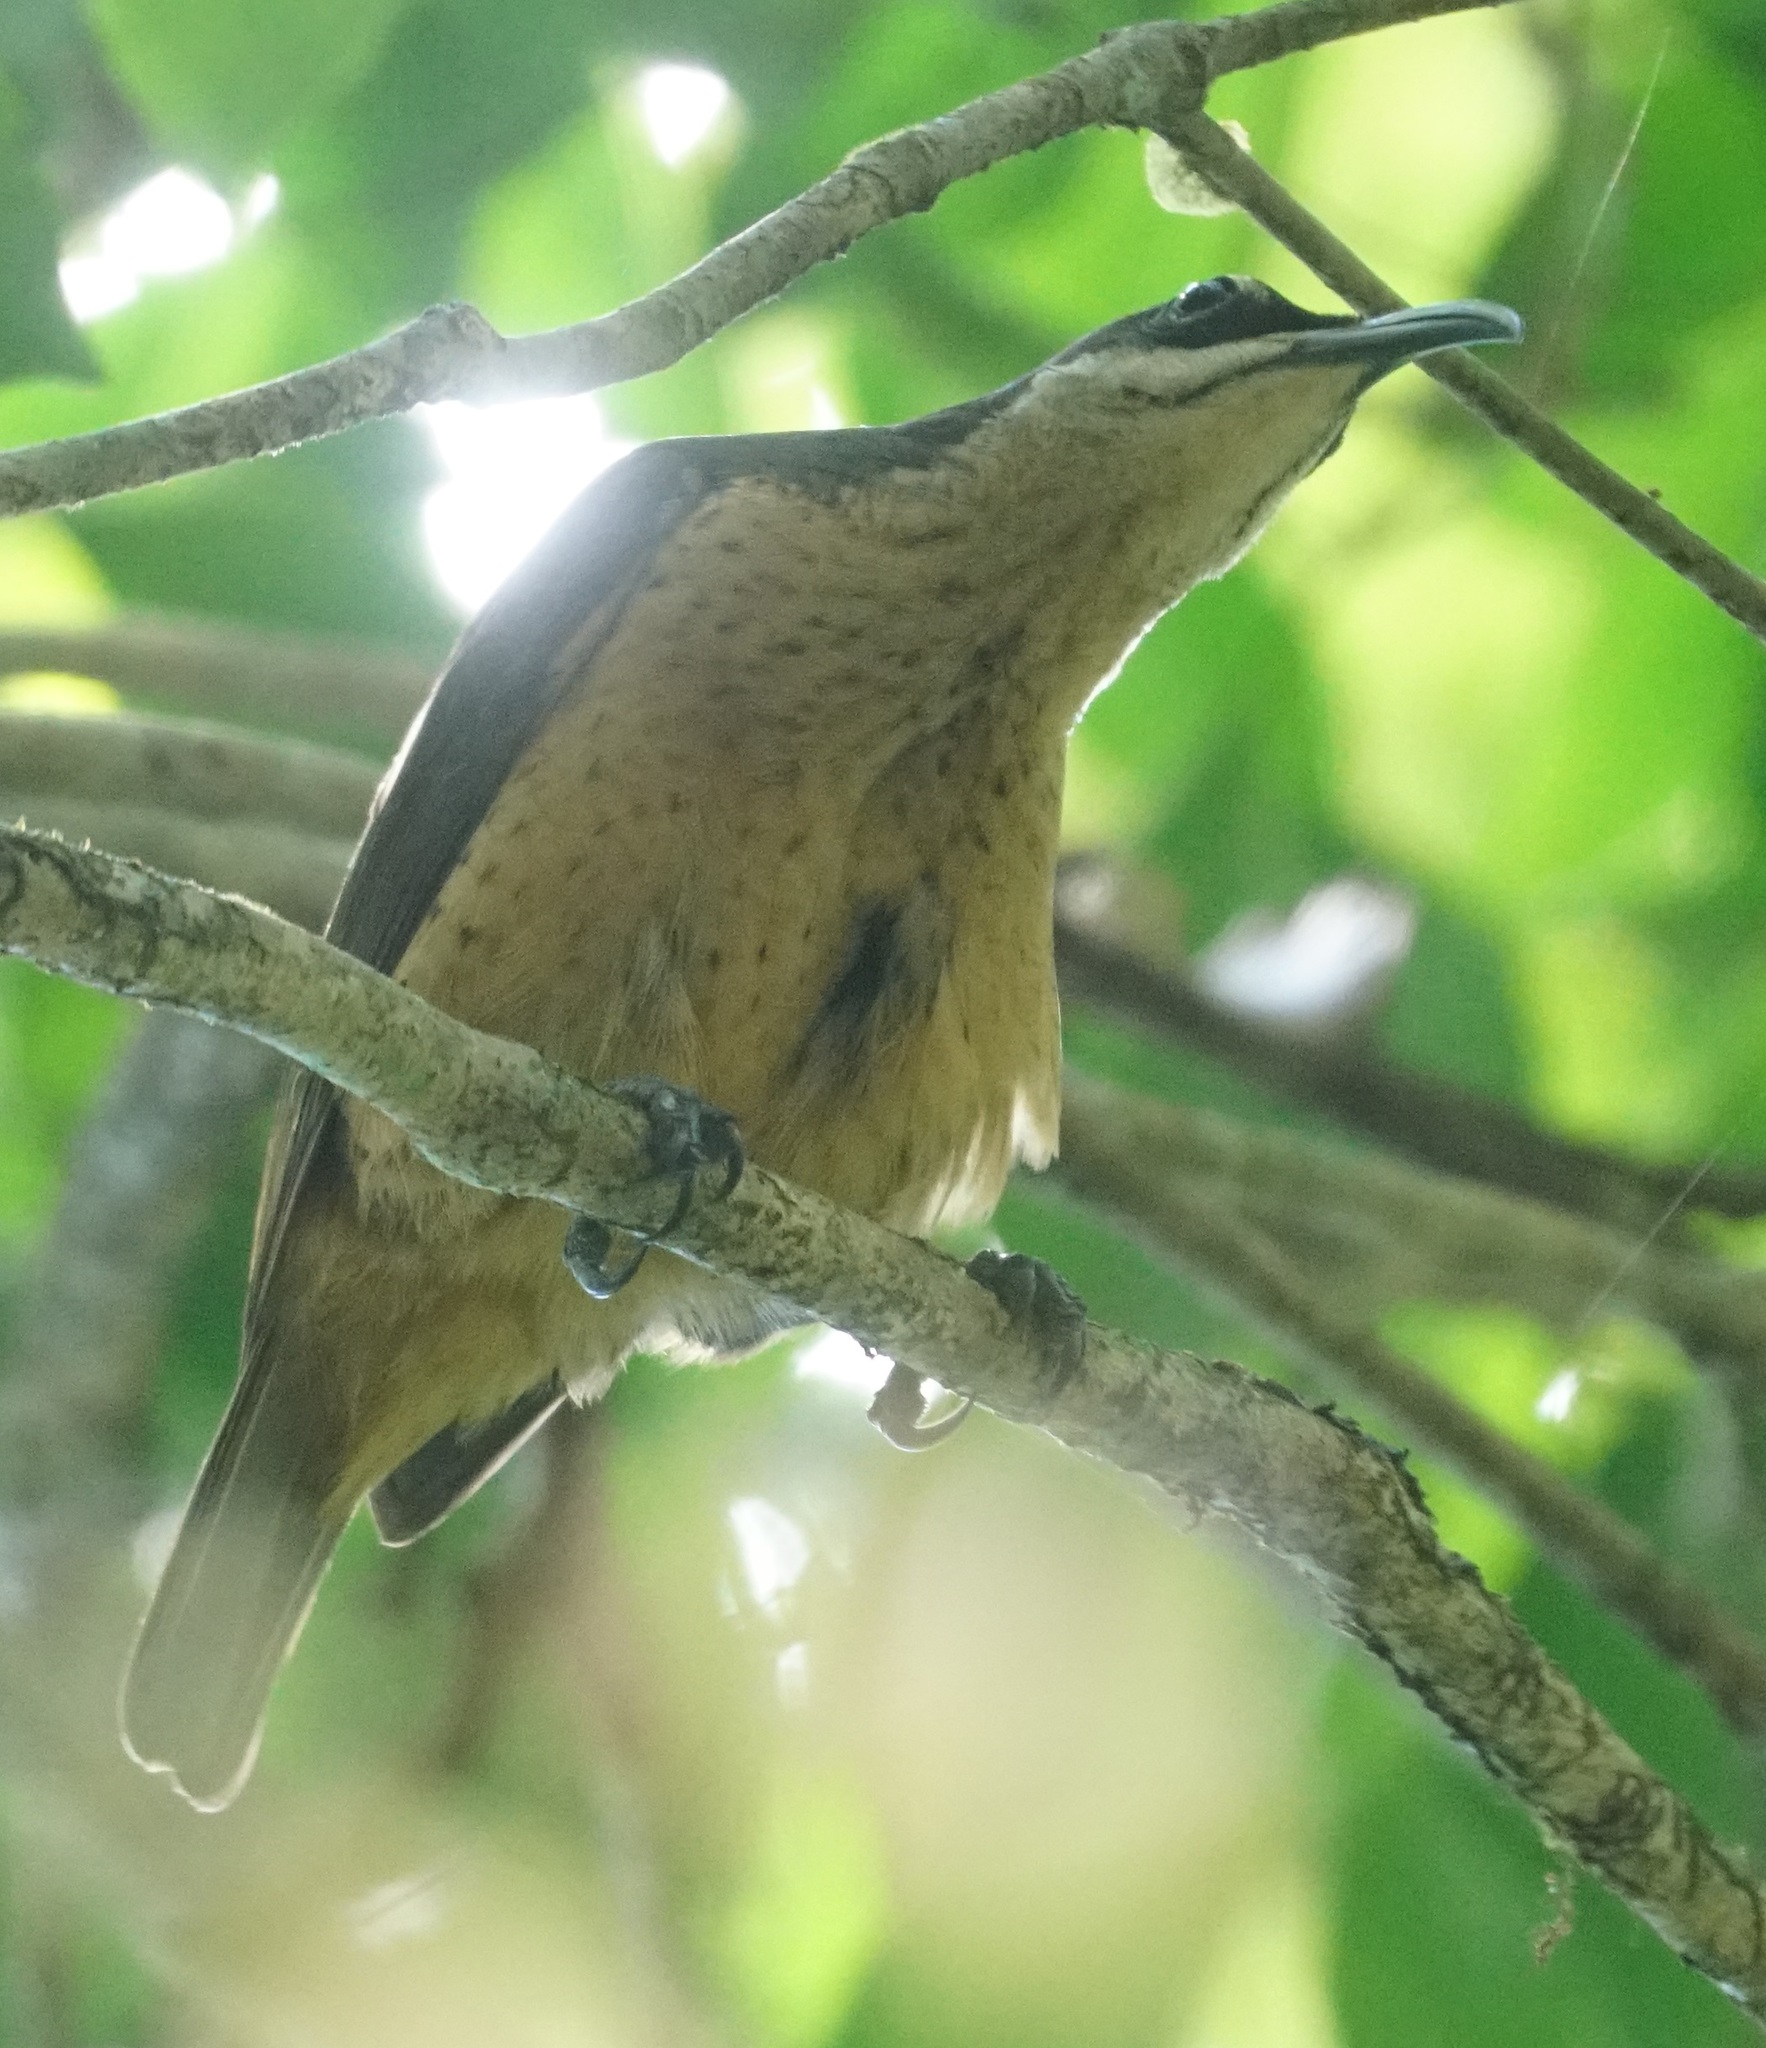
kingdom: Animalia
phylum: Chordata
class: Aves
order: Passeriformes
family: Paradisaeidae
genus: Ptiloris
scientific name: Ptiloris victoriae
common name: Victoria's riflebird
